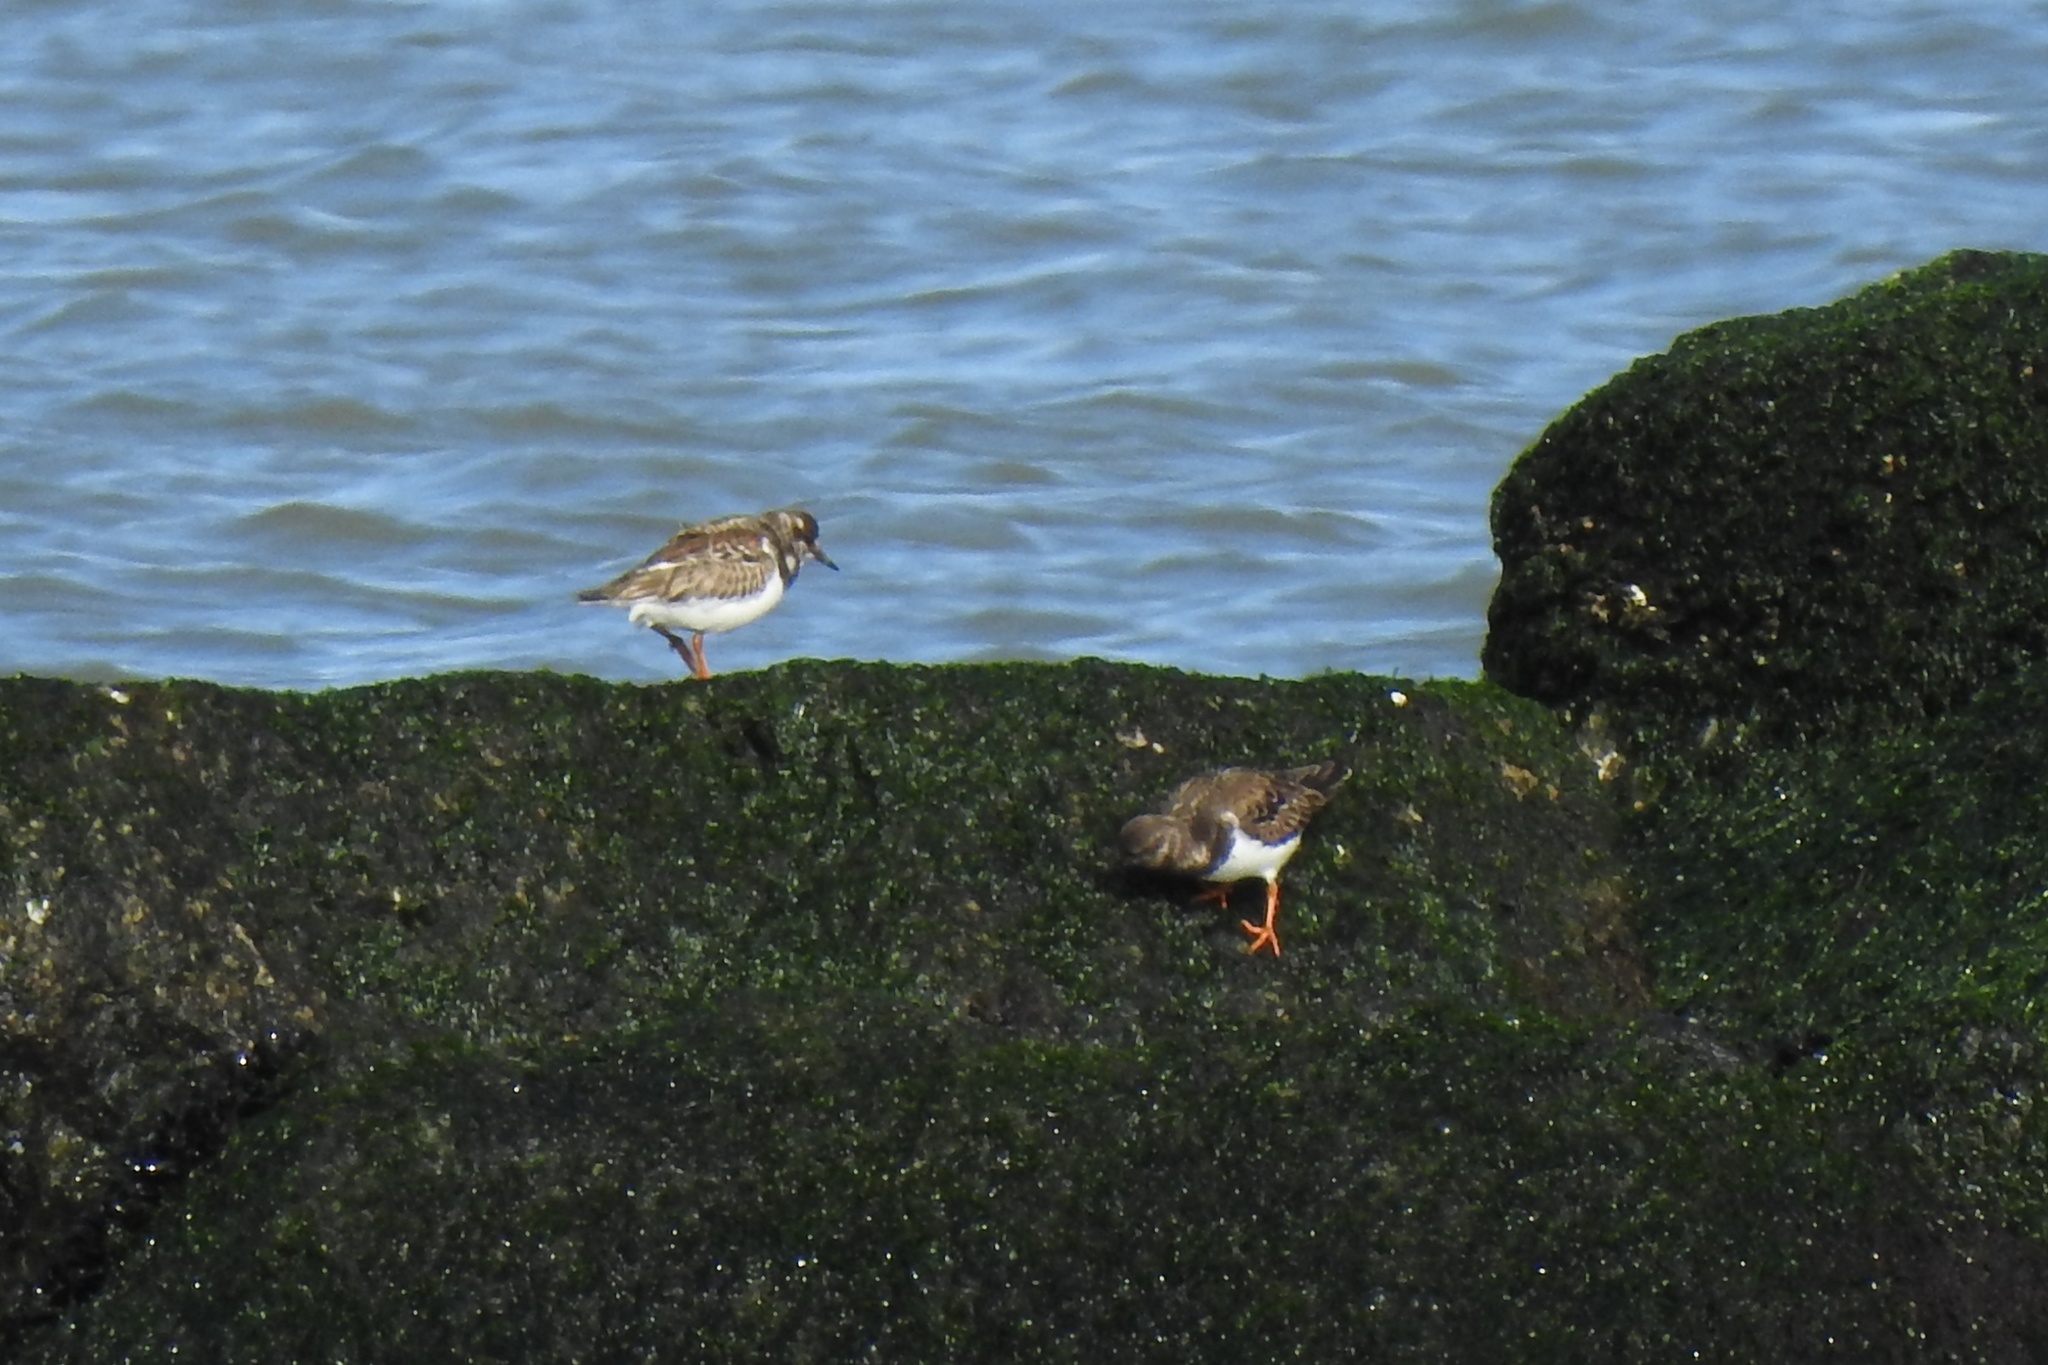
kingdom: Animalia
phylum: Chordata
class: Aves
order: Charadriiformes
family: Scolopacidae
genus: Arenaria
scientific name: Arenaria interpres
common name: Ruddy turnstone
